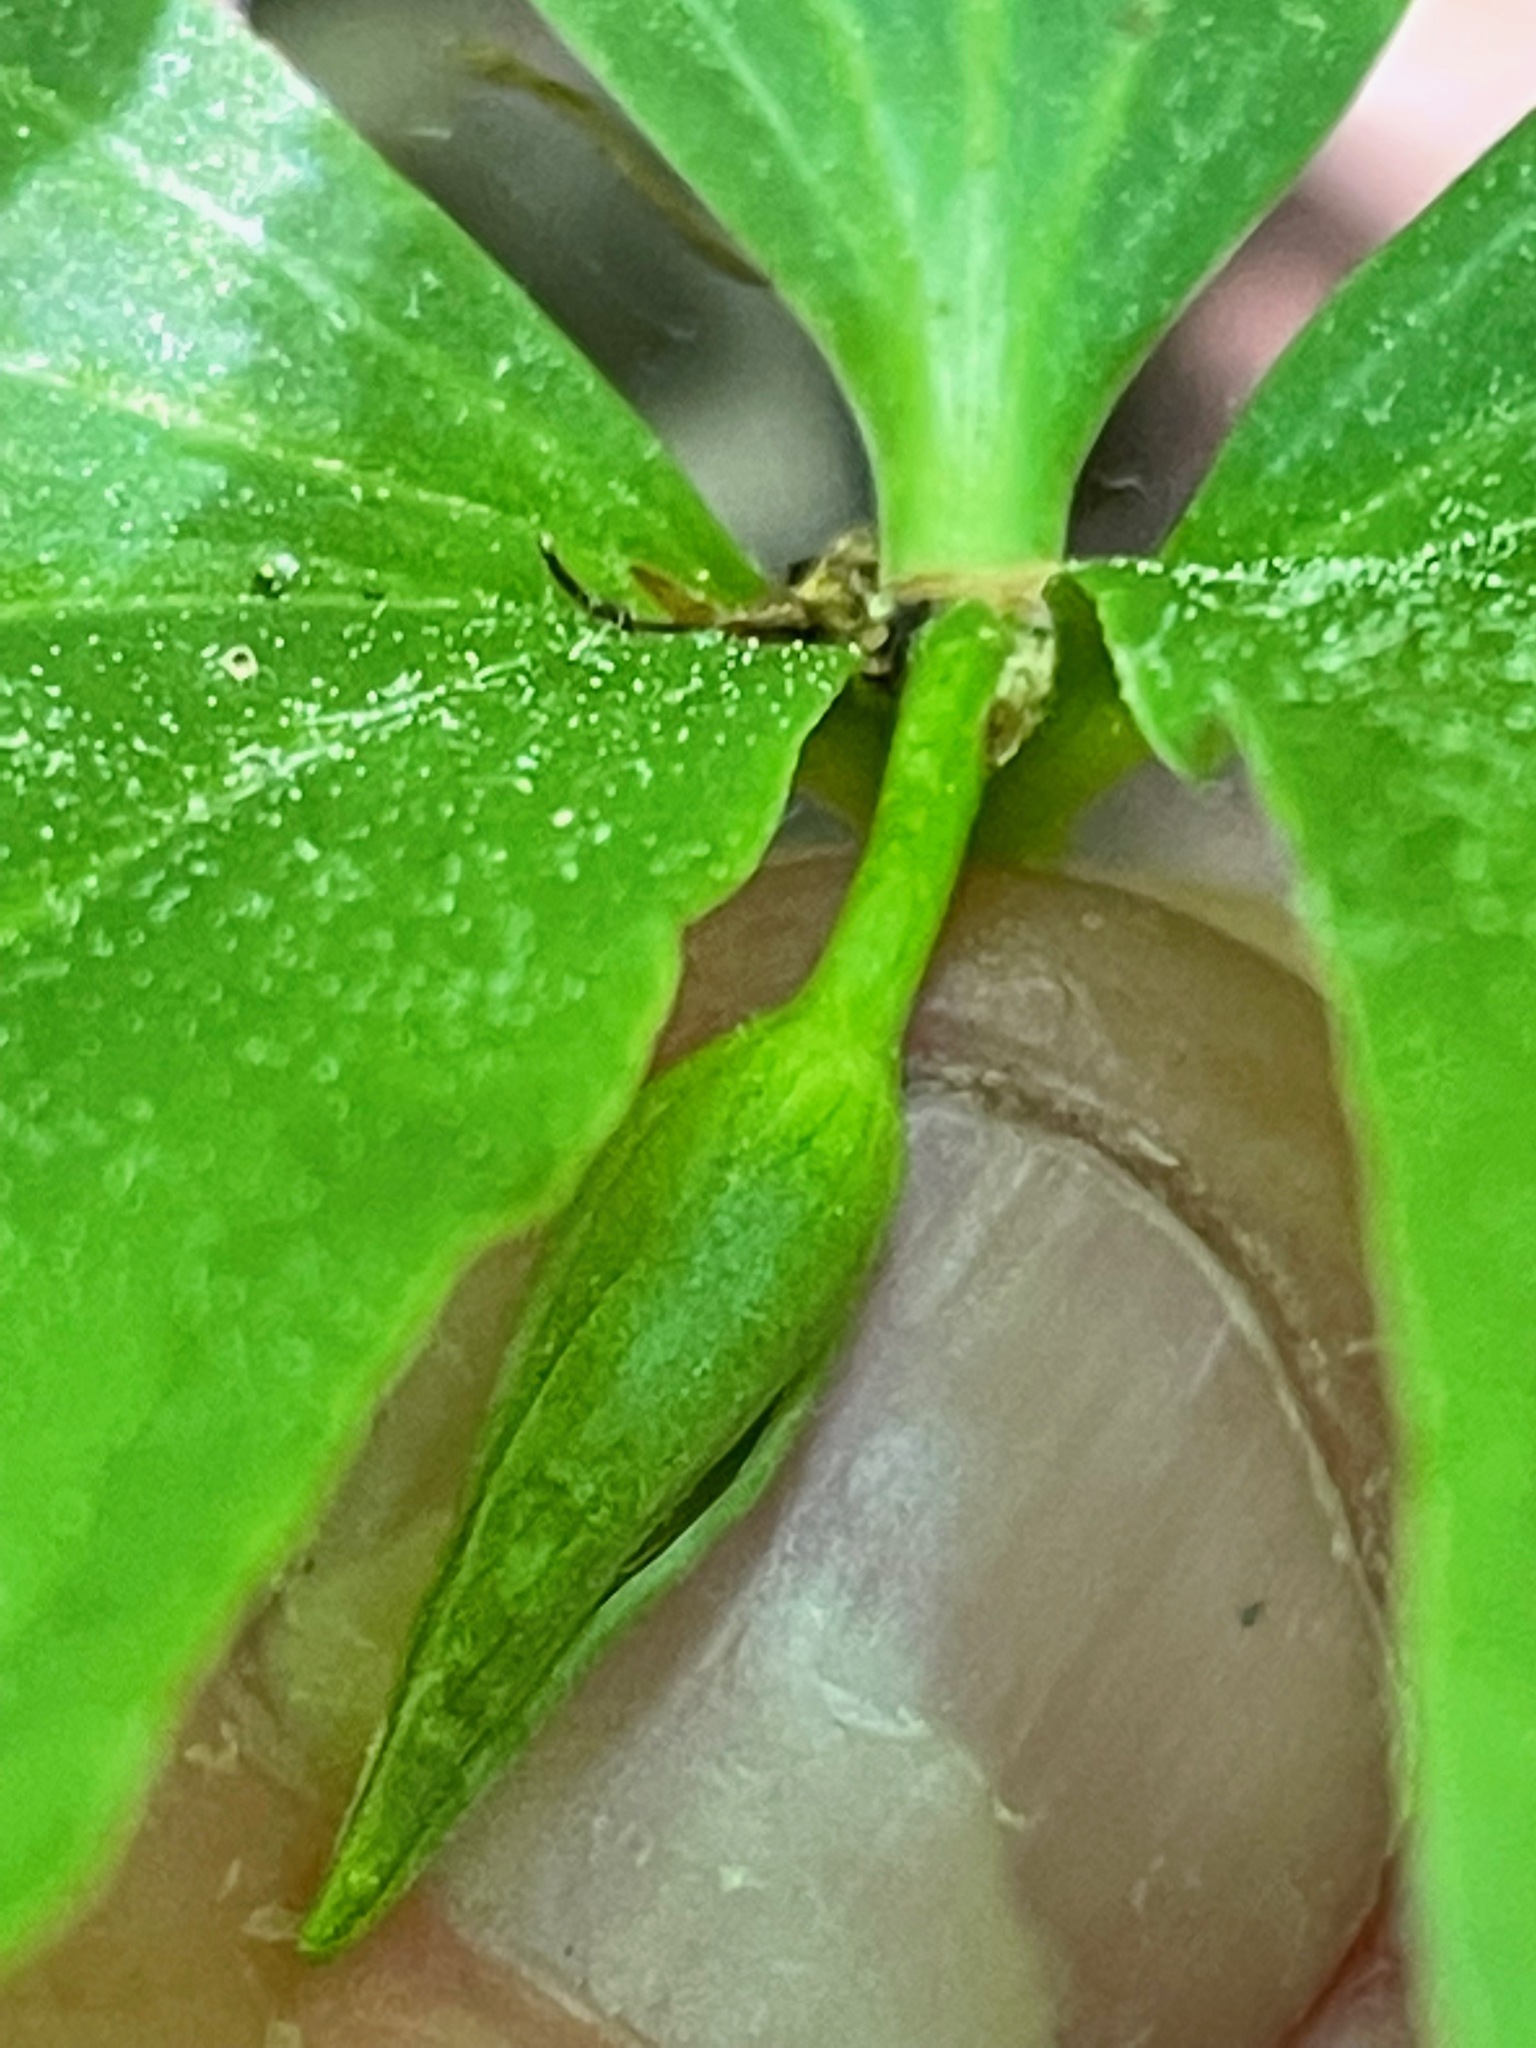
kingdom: Plantae
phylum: Tracheophyta
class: Liliopsida
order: Liliales
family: Melanthiaceae
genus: Trillium
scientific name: Trillium cernuum
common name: Nodding trillium
